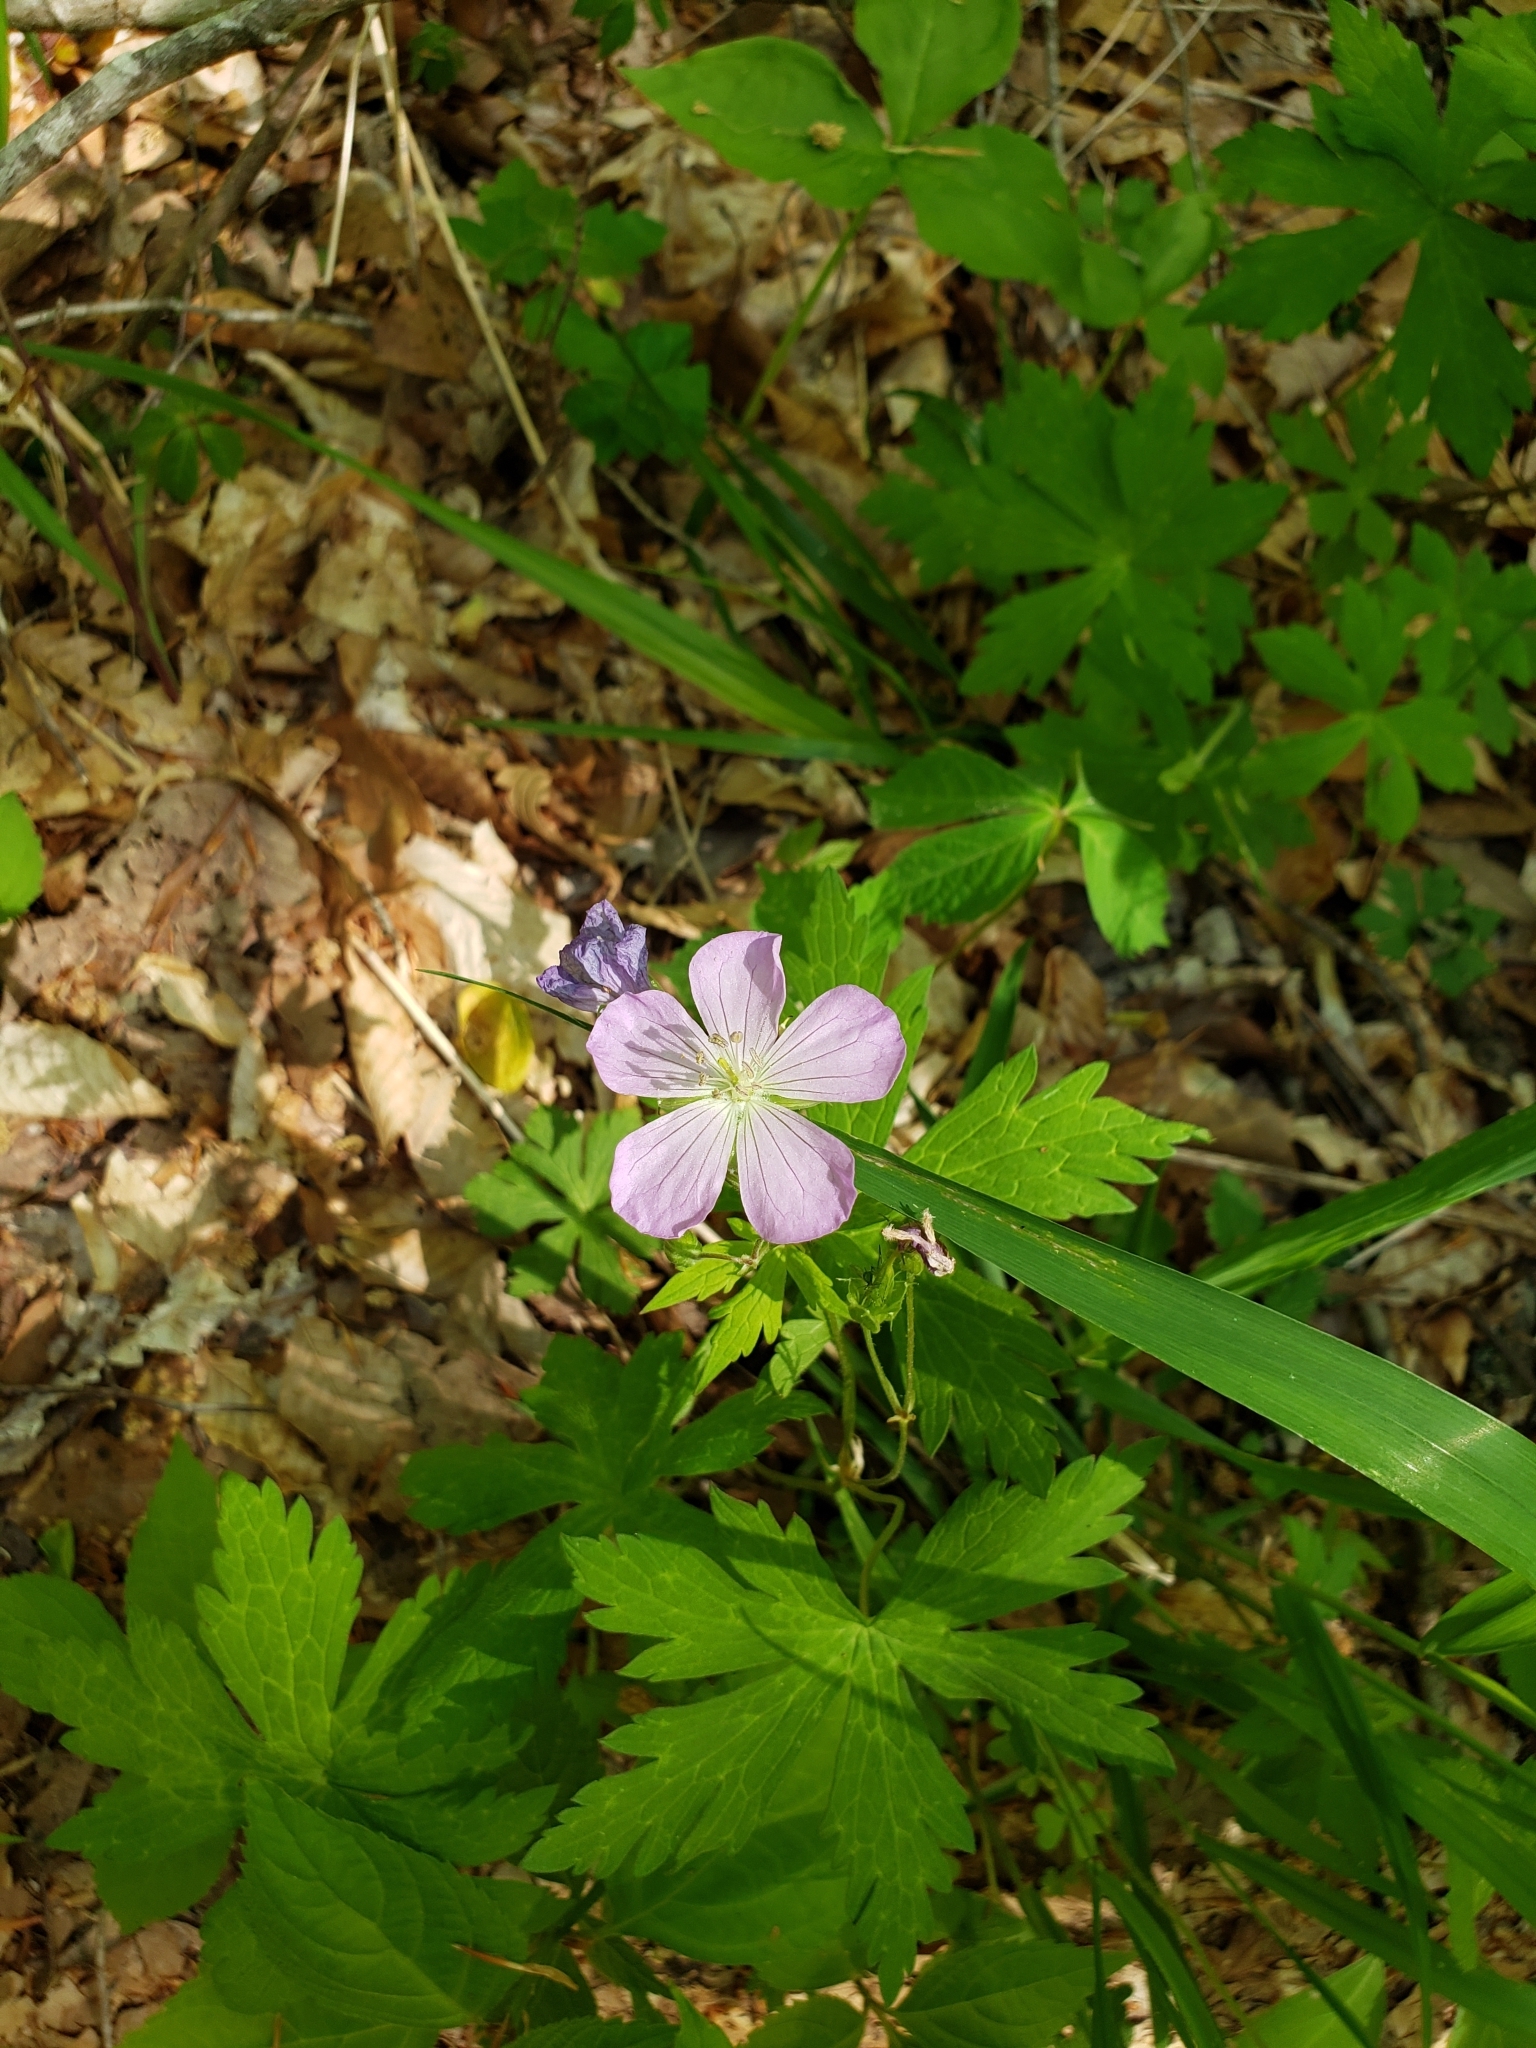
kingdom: Plantae
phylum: Tracheophyta
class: Magnoliopsida
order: Geraniales
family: Geraniaceae
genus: Geranium
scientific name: Geranium maculatum
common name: Spotted geranium
